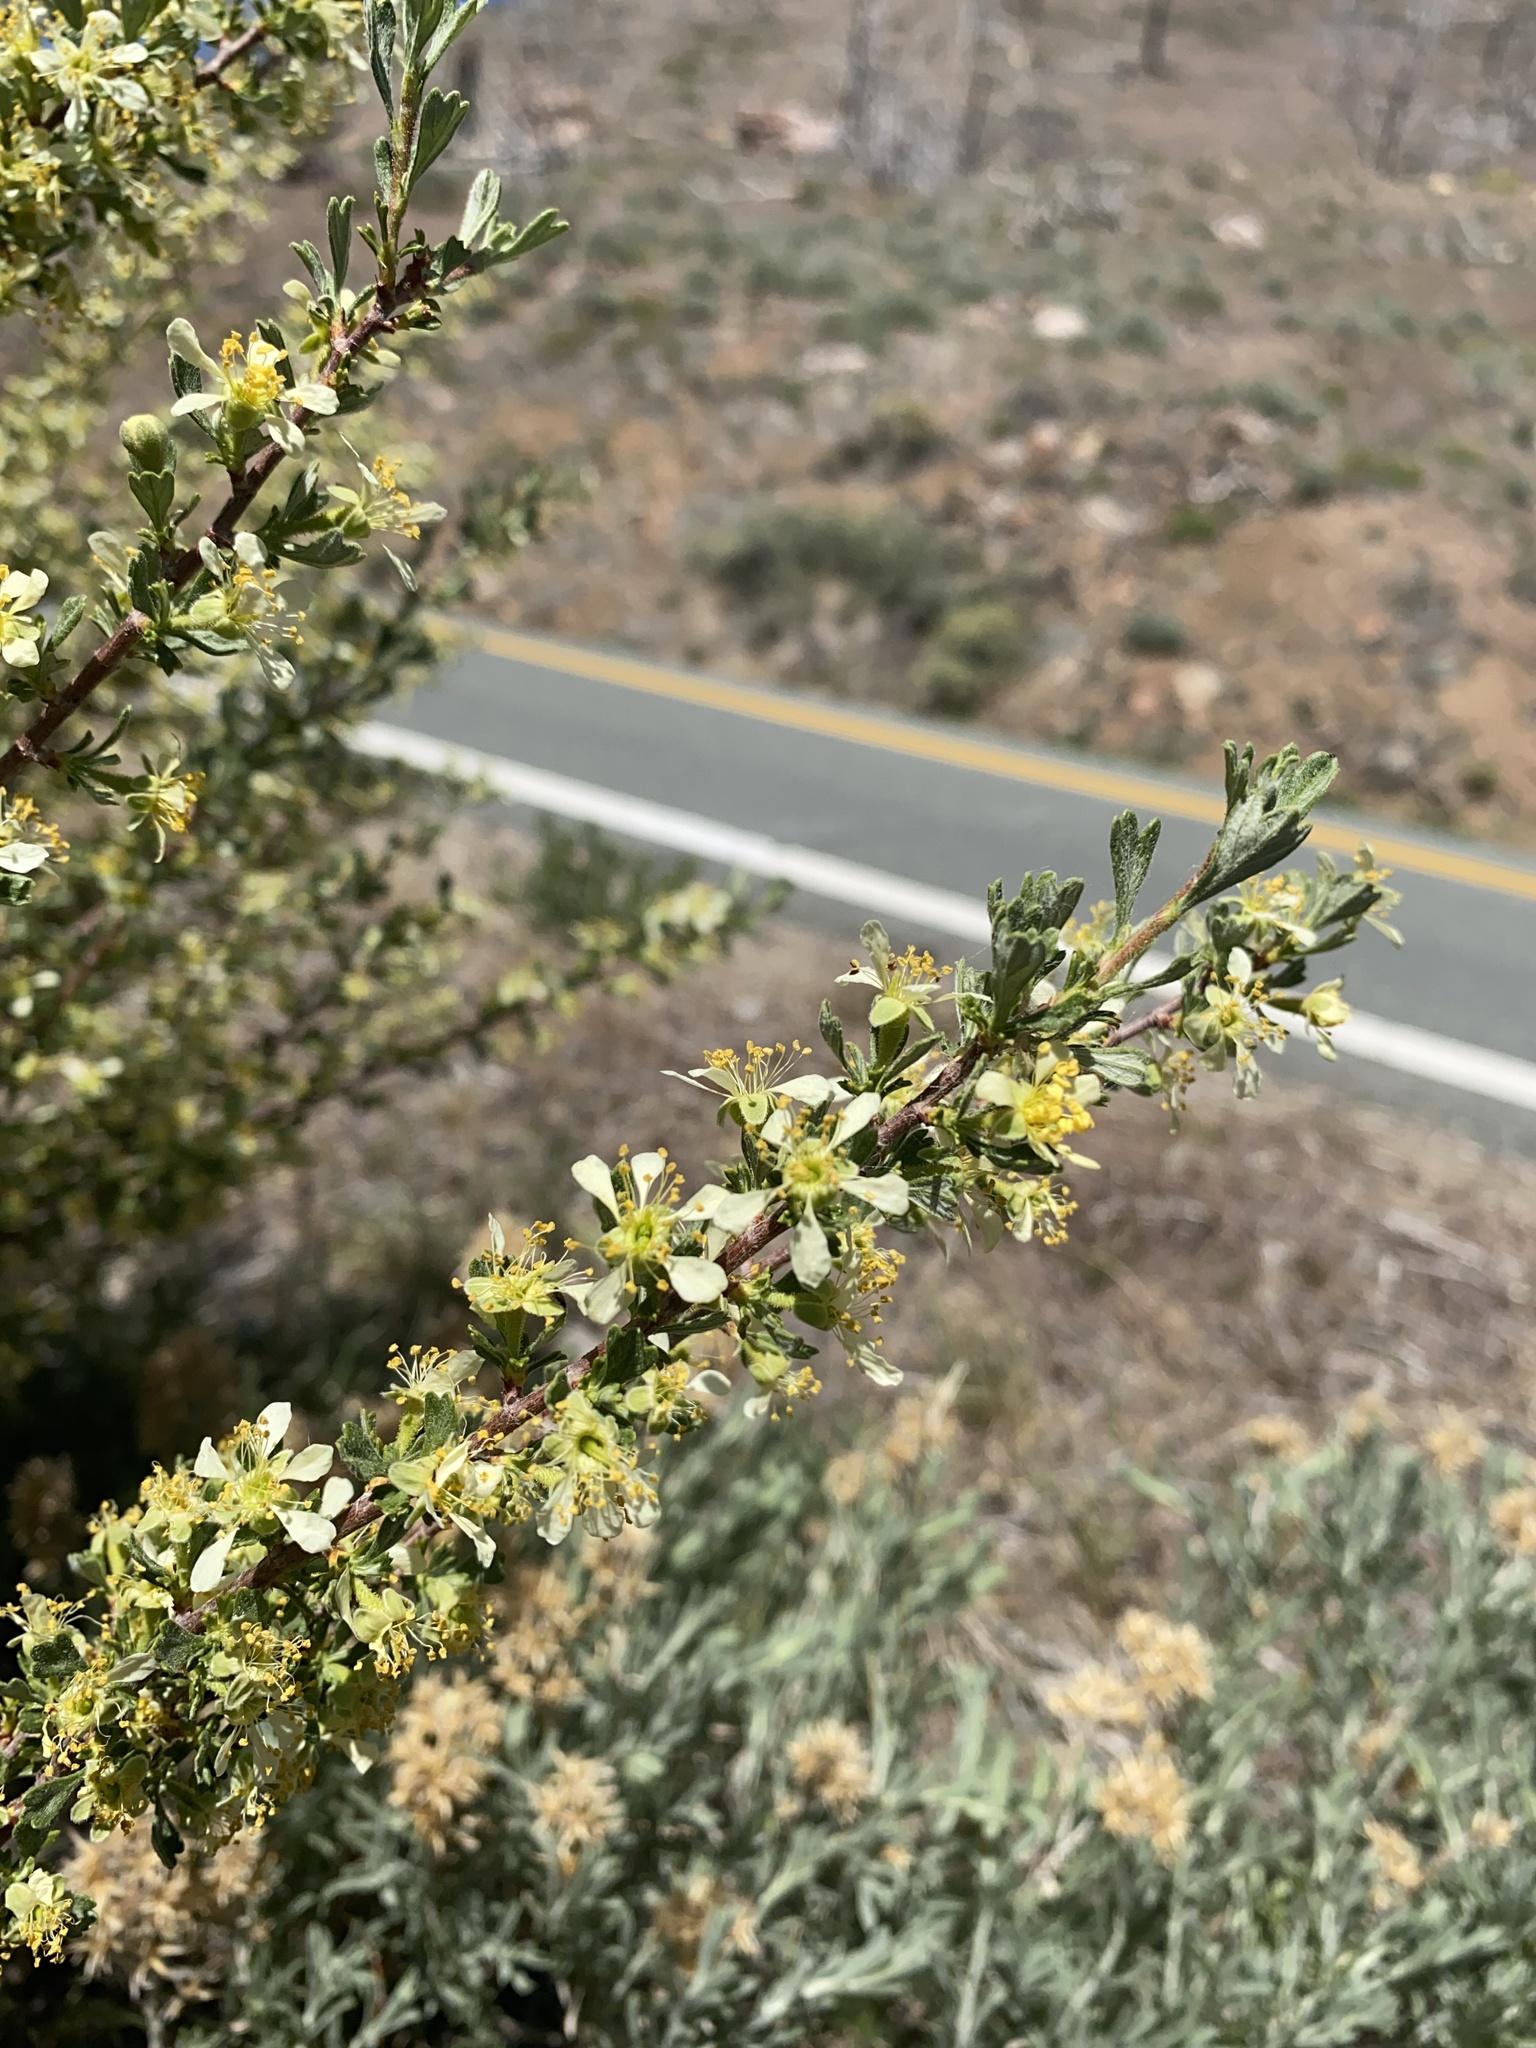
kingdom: Plantae
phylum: Tracheophyta
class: Magnoliopsida
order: Rosales
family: Rosaceae
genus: Purshia
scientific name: Purshia tridentata
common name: Antelope bitterbrush
